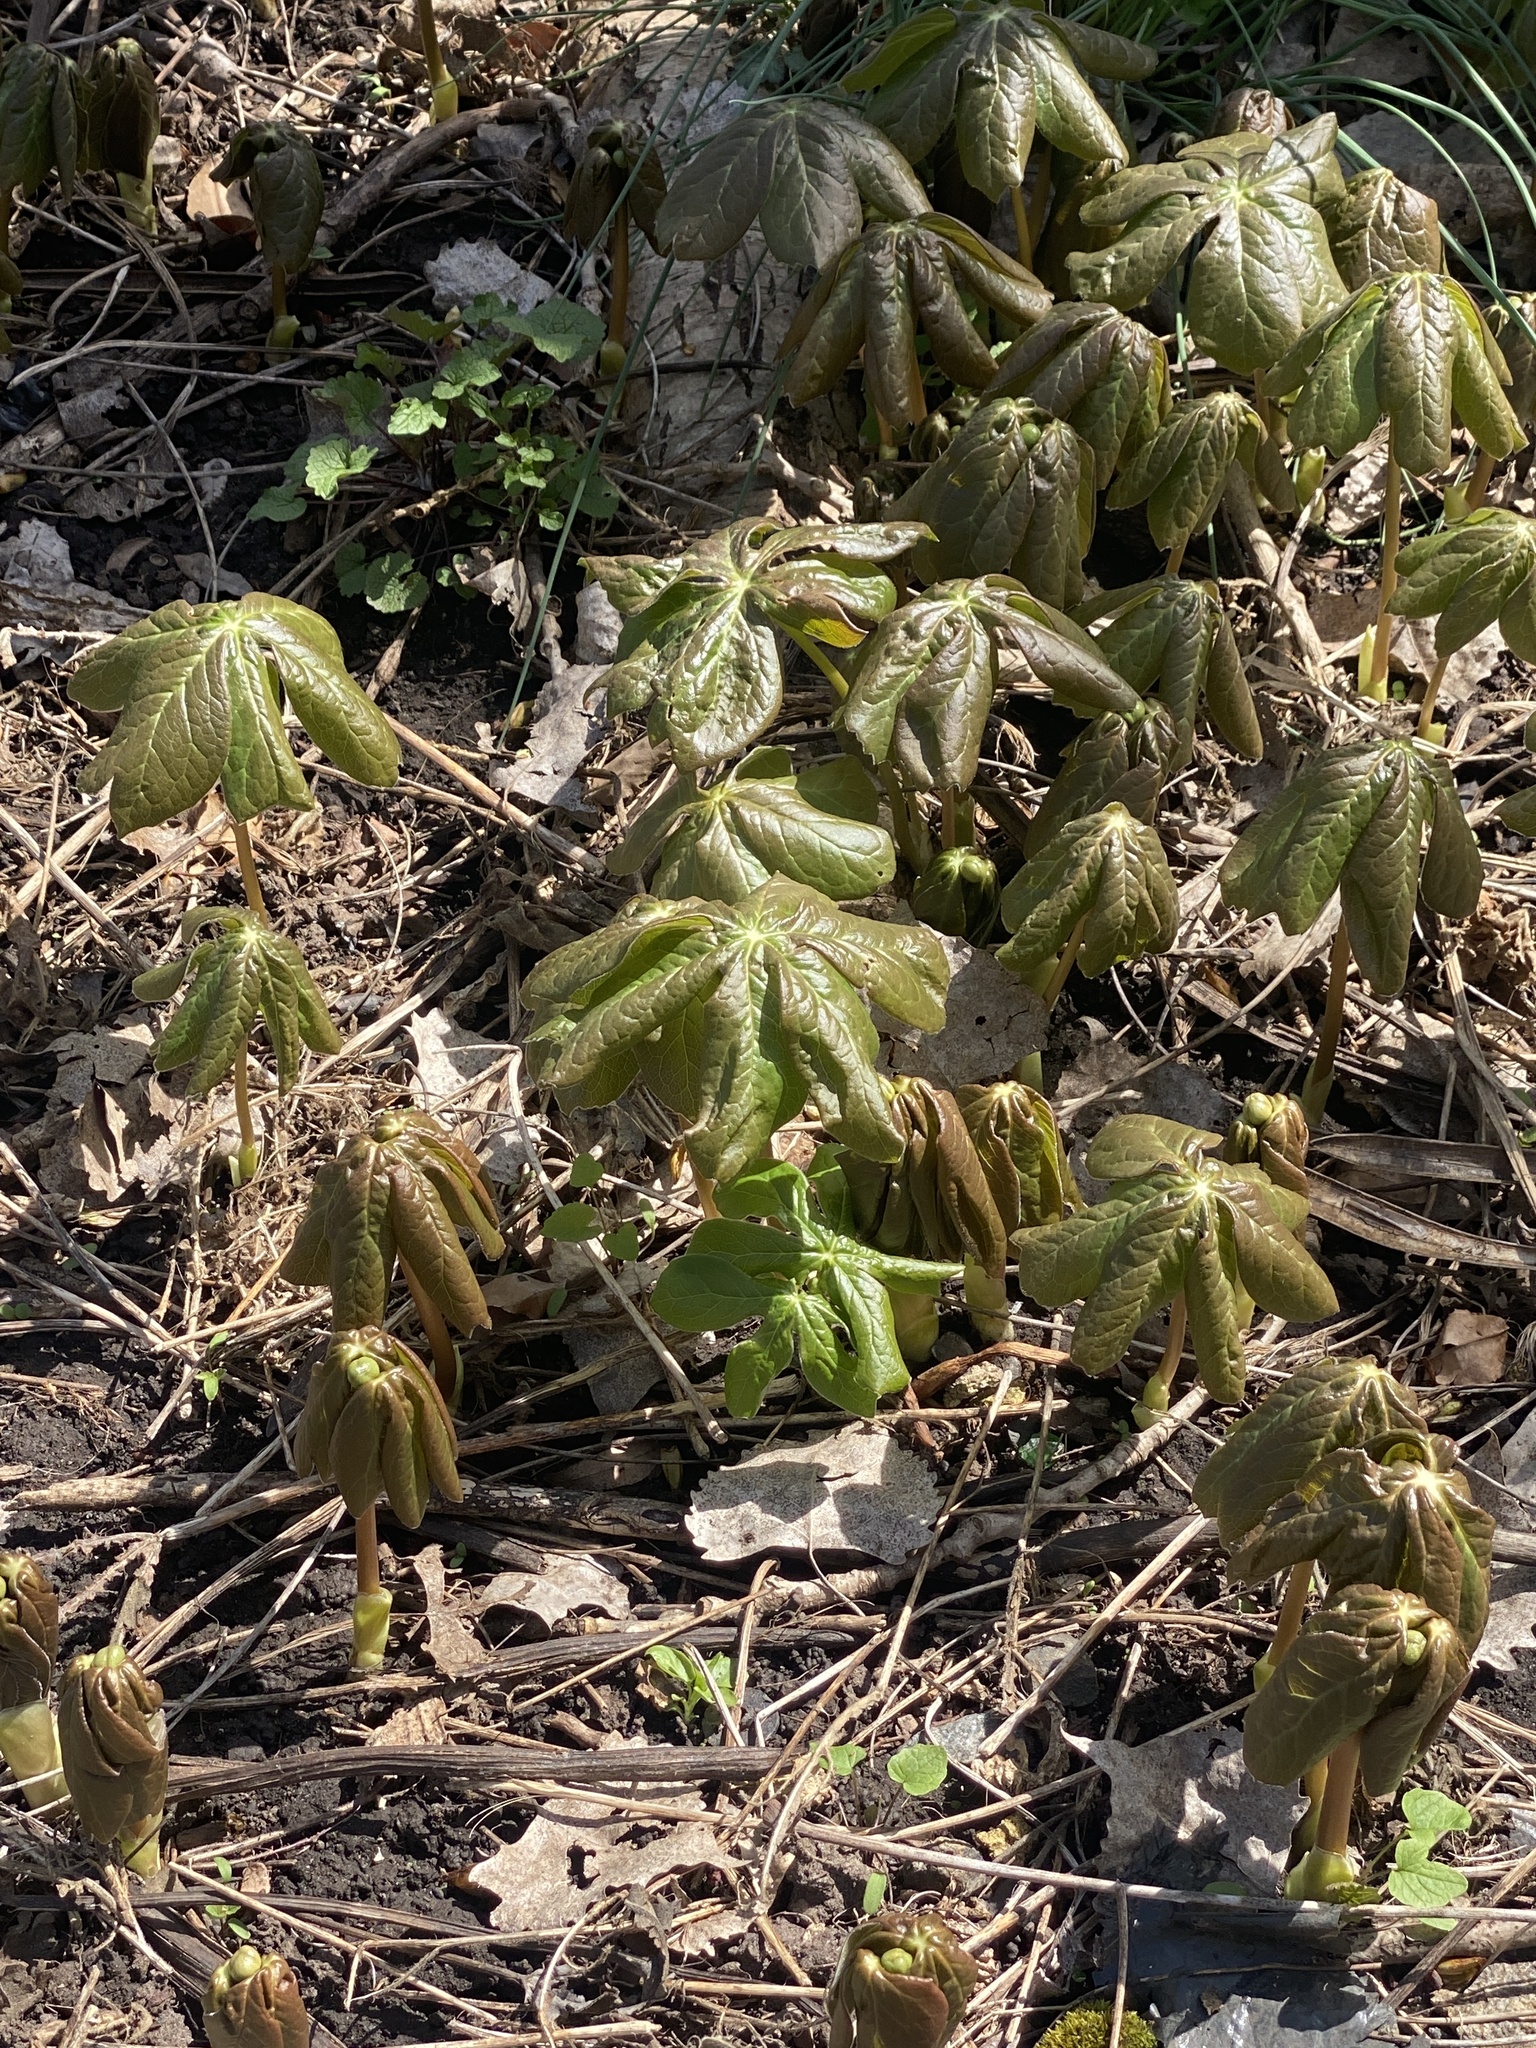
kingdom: Plantae
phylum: Tracheophyta
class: Magnoliopsida
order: Ranunculales
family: Berberidaceae
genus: Podophyllum
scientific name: Podophyllum peltatum
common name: Wild mandrake
